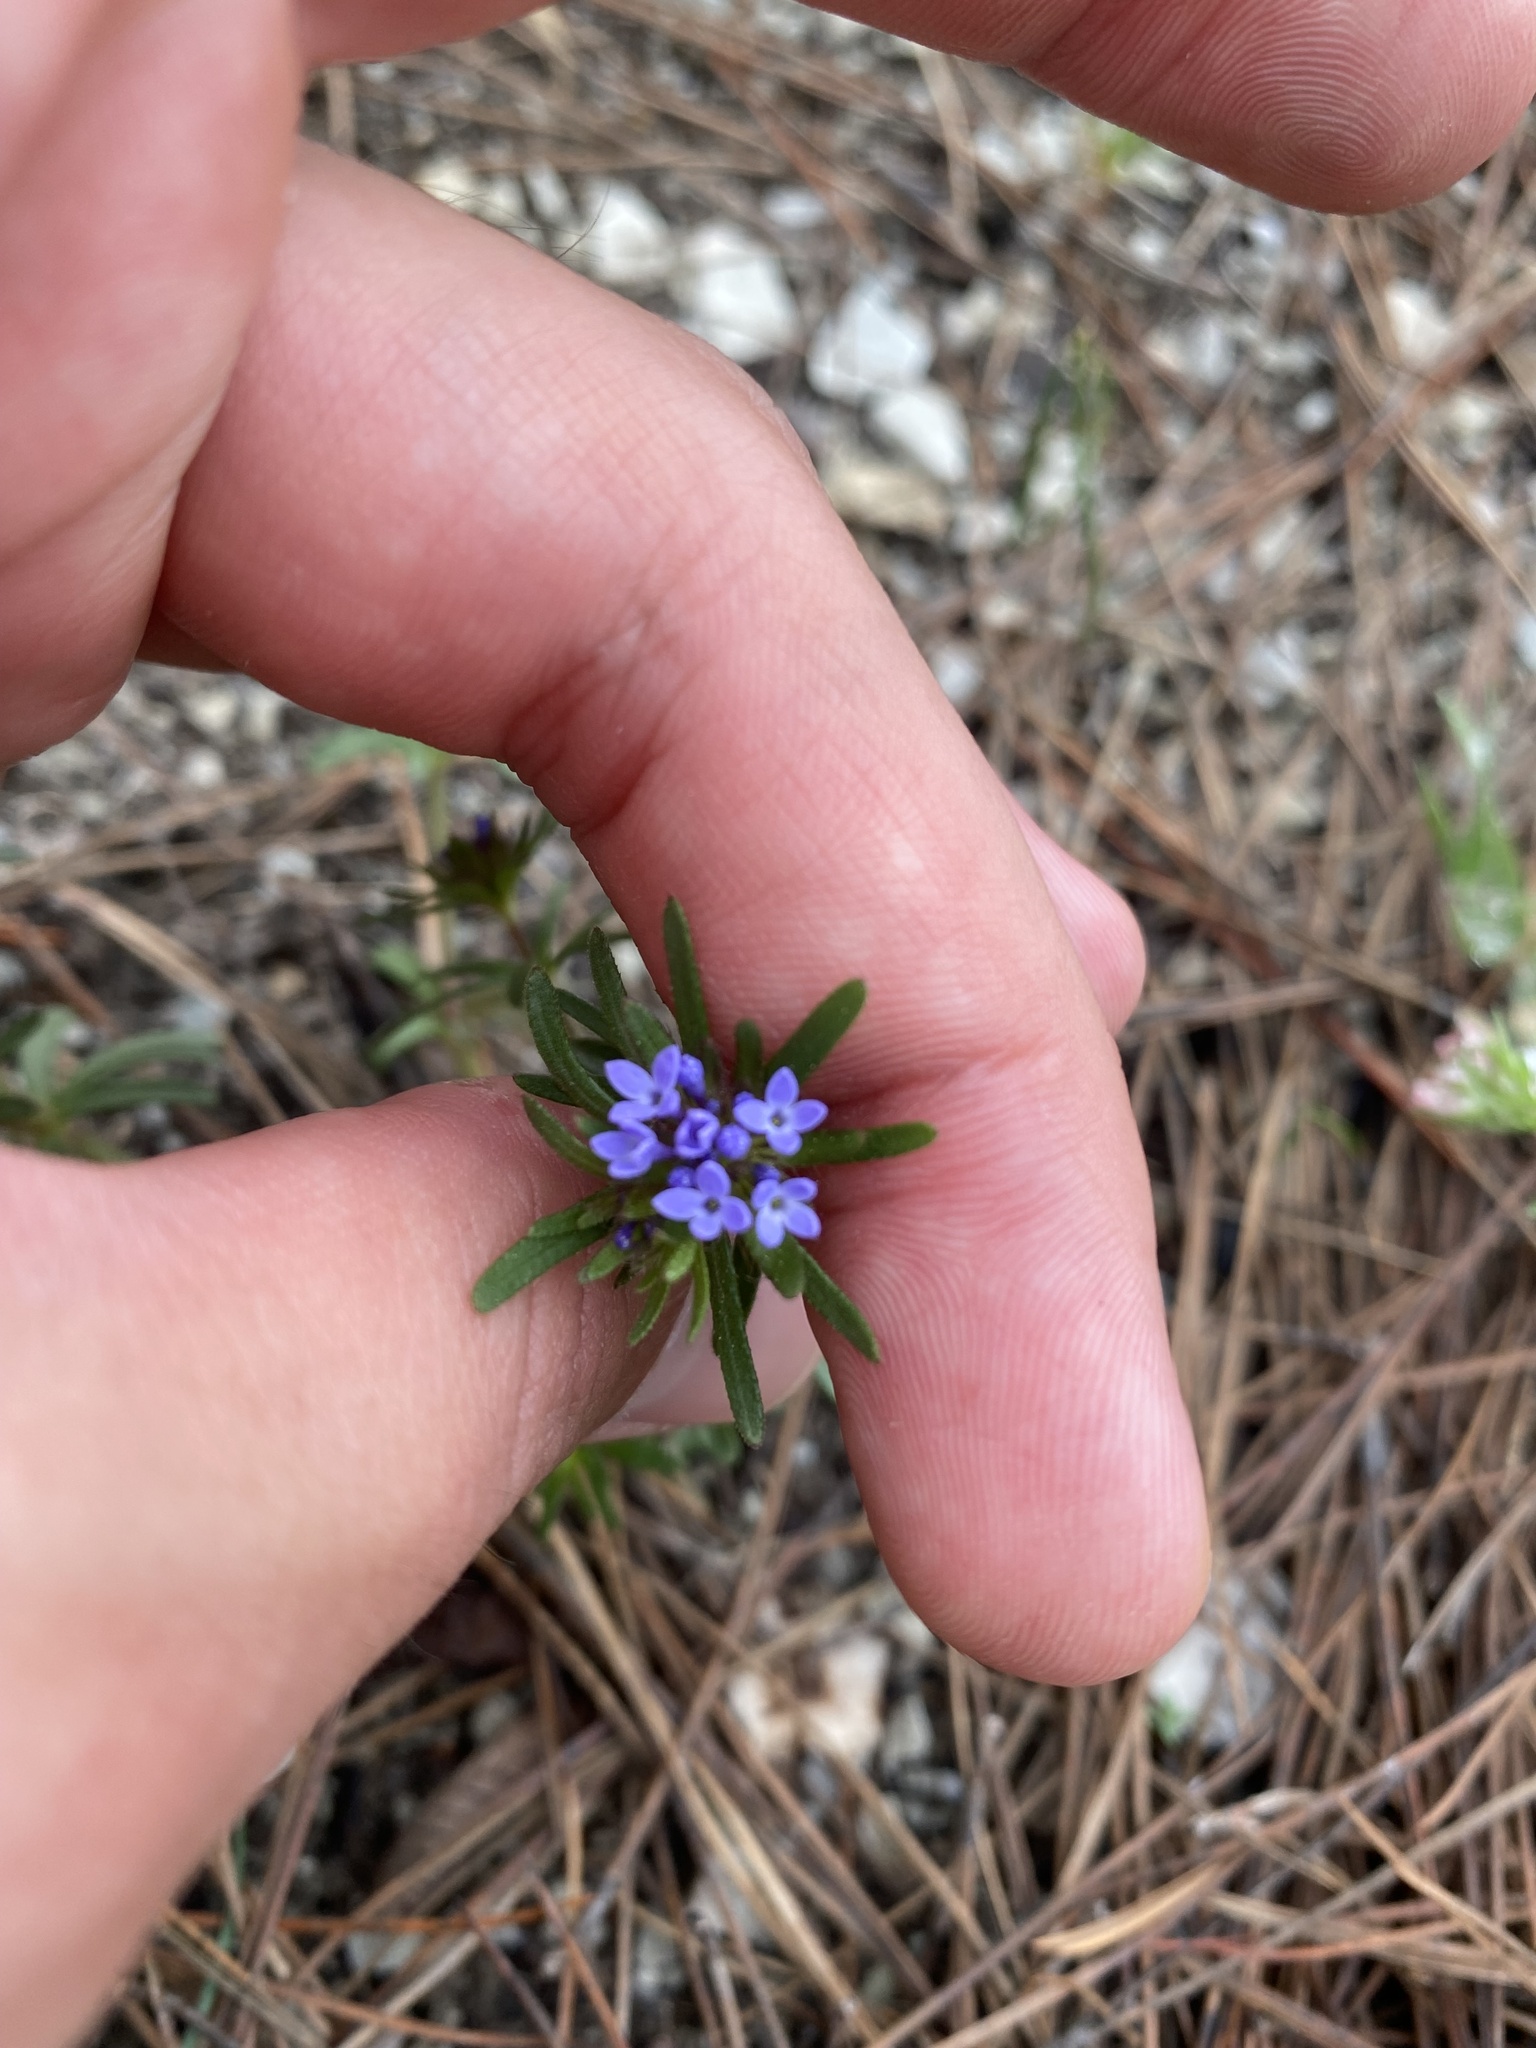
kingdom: Plantae
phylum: Tracheophyta
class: Magnoliopsida
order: Gentianales
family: Rubiaceae
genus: Sherardia
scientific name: Sherardia arvensis
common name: Field madder
